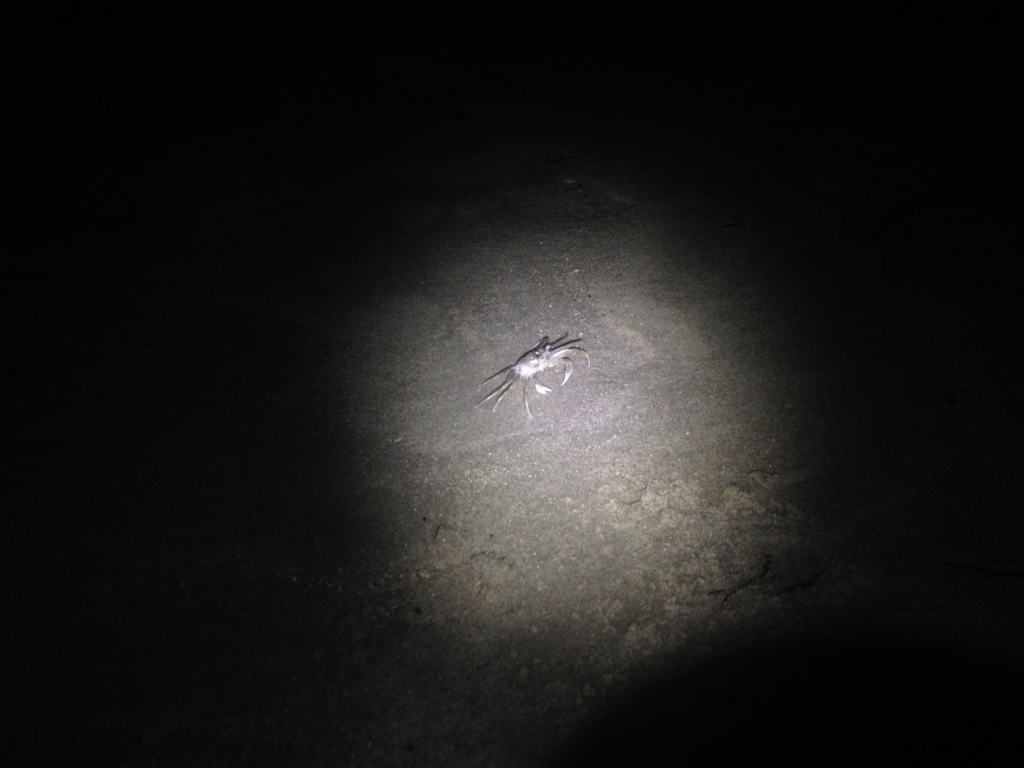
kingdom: Animalia
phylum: Arthropoda
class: Malacostraca
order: Decapoda
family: Ocypodidae
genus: Ocypode
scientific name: Ocypode quadrata
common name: Ghost crab
